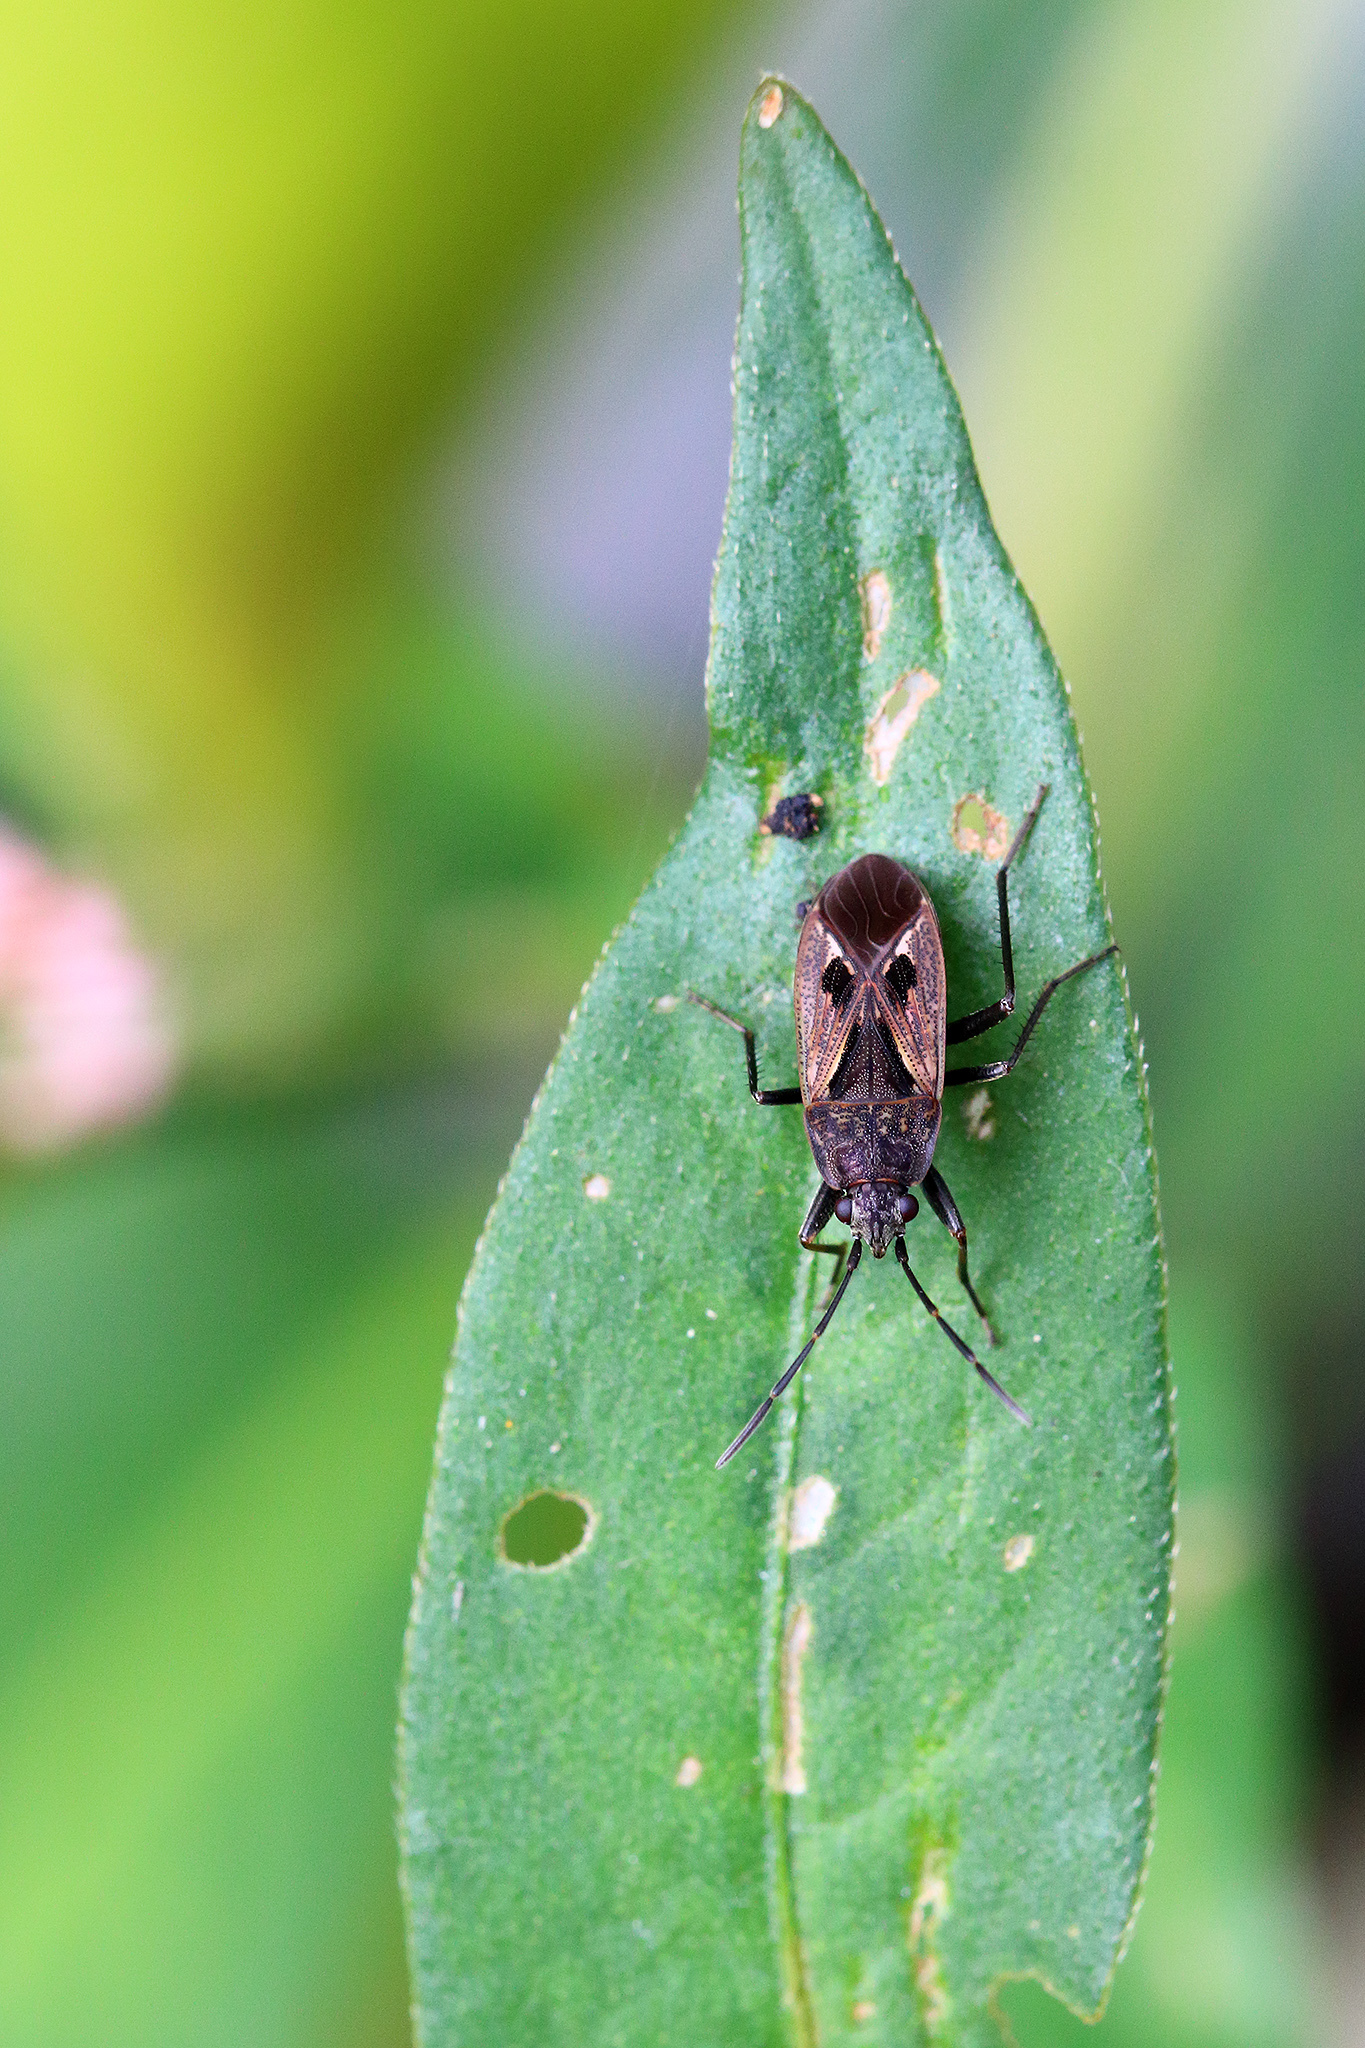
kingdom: Animalia
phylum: Arthropoda
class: Insecta
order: Hemiptera
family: Rhyparochromidae
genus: Rhyparochromus
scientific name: Rhyparochromus pini
